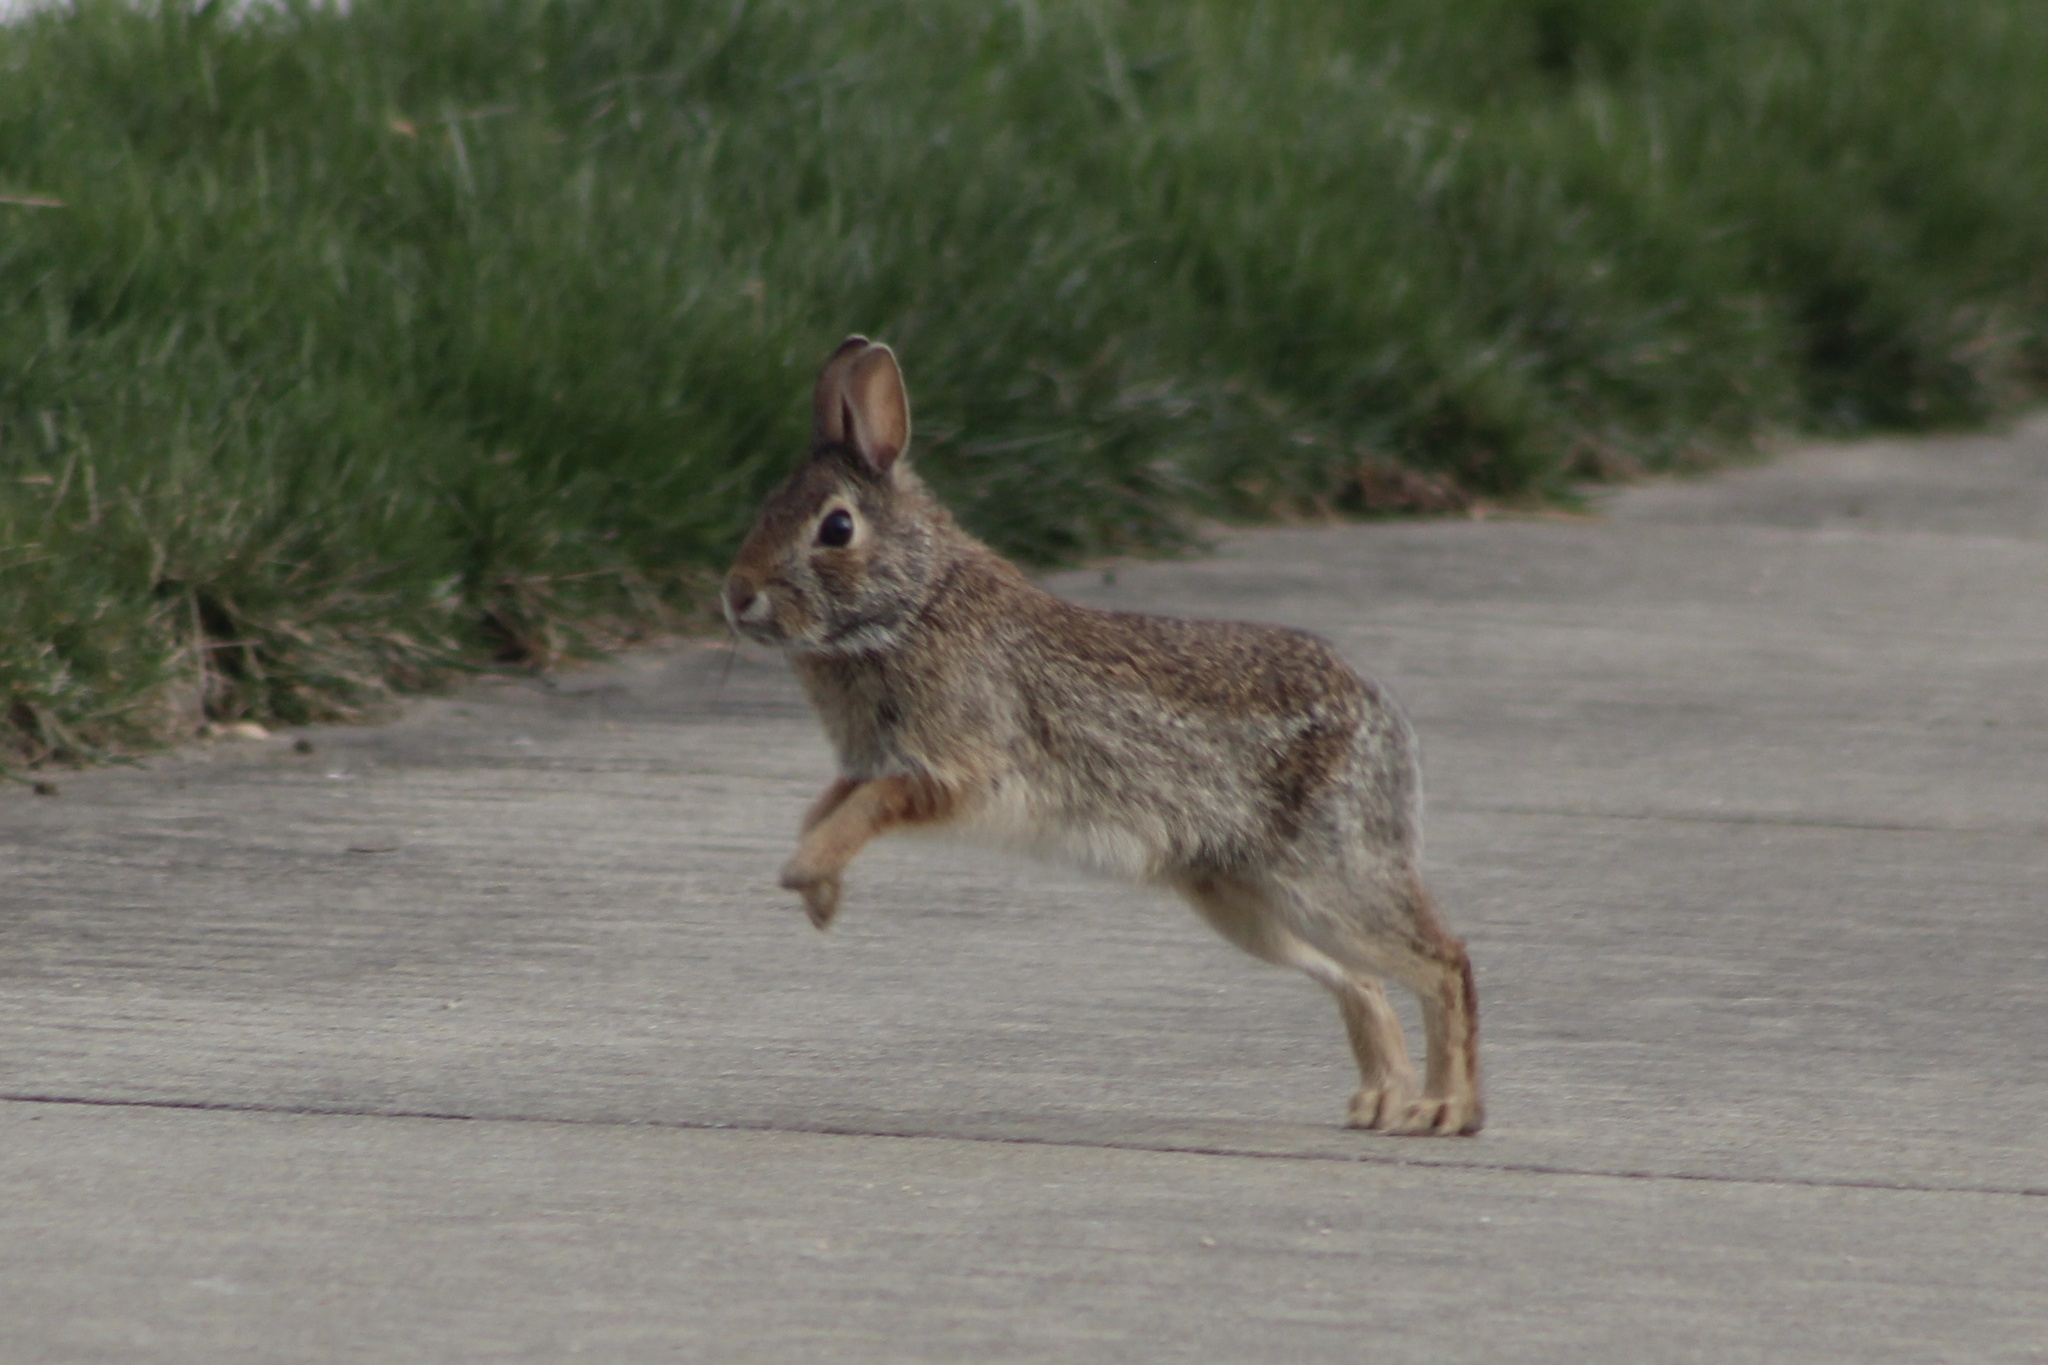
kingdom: Animalia
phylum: Chordata
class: Mammalia
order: Lagomorpha
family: Leporidae
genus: Sylvilagus
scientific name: Sylvilagus floridanus
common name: Eastern cottontail
